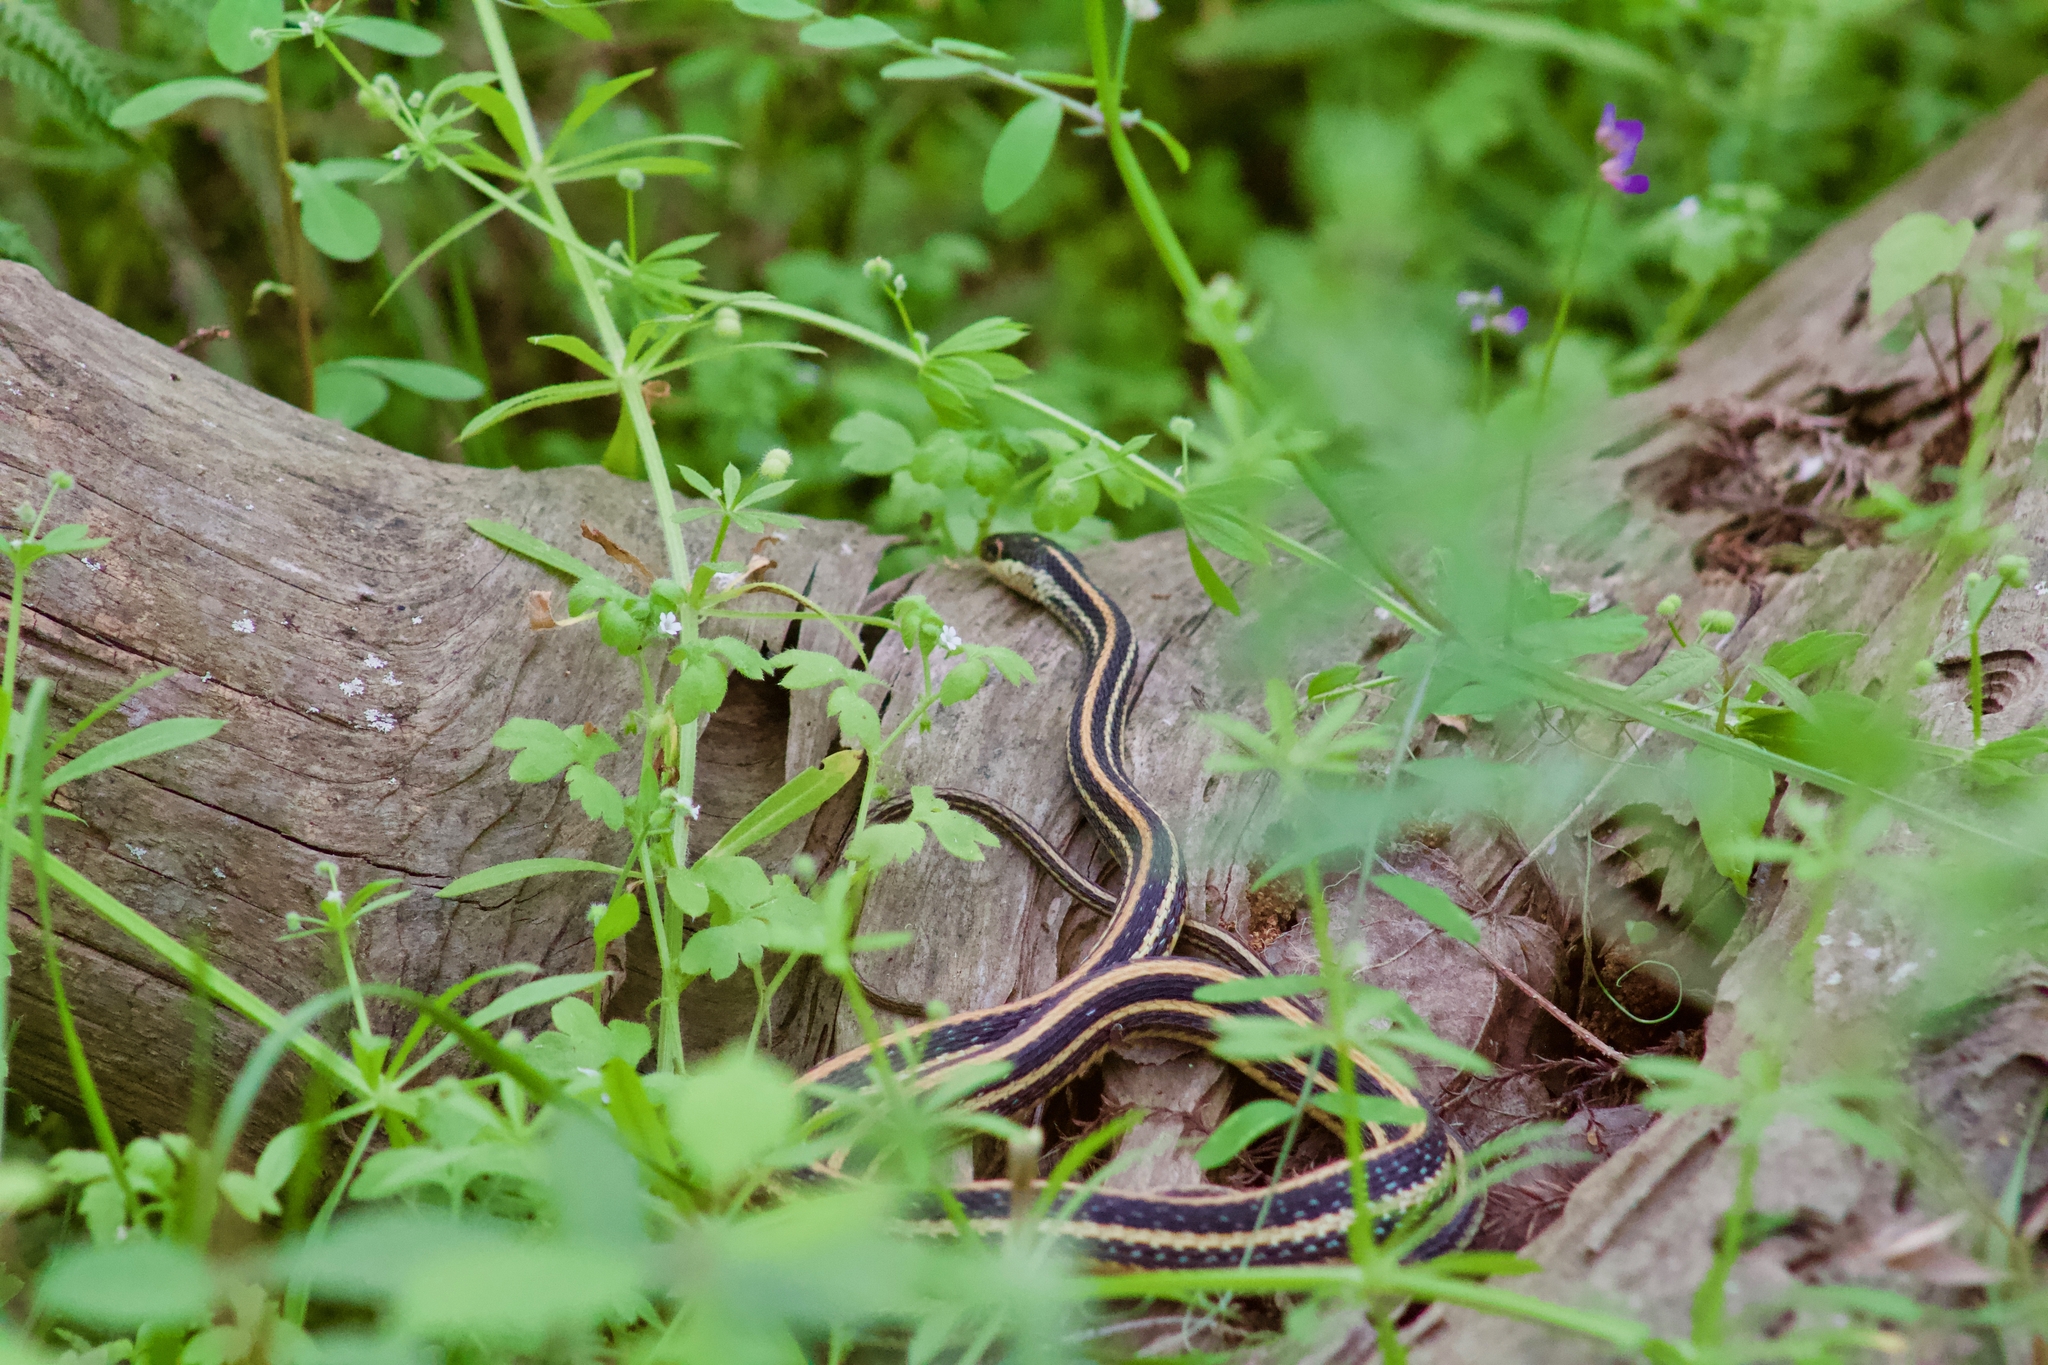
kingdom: Animalia
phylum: Chordata
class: Squamata
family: Colubridae
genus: Thamnophis
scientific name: Thamnophis proximus
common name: Western ribbon snake
